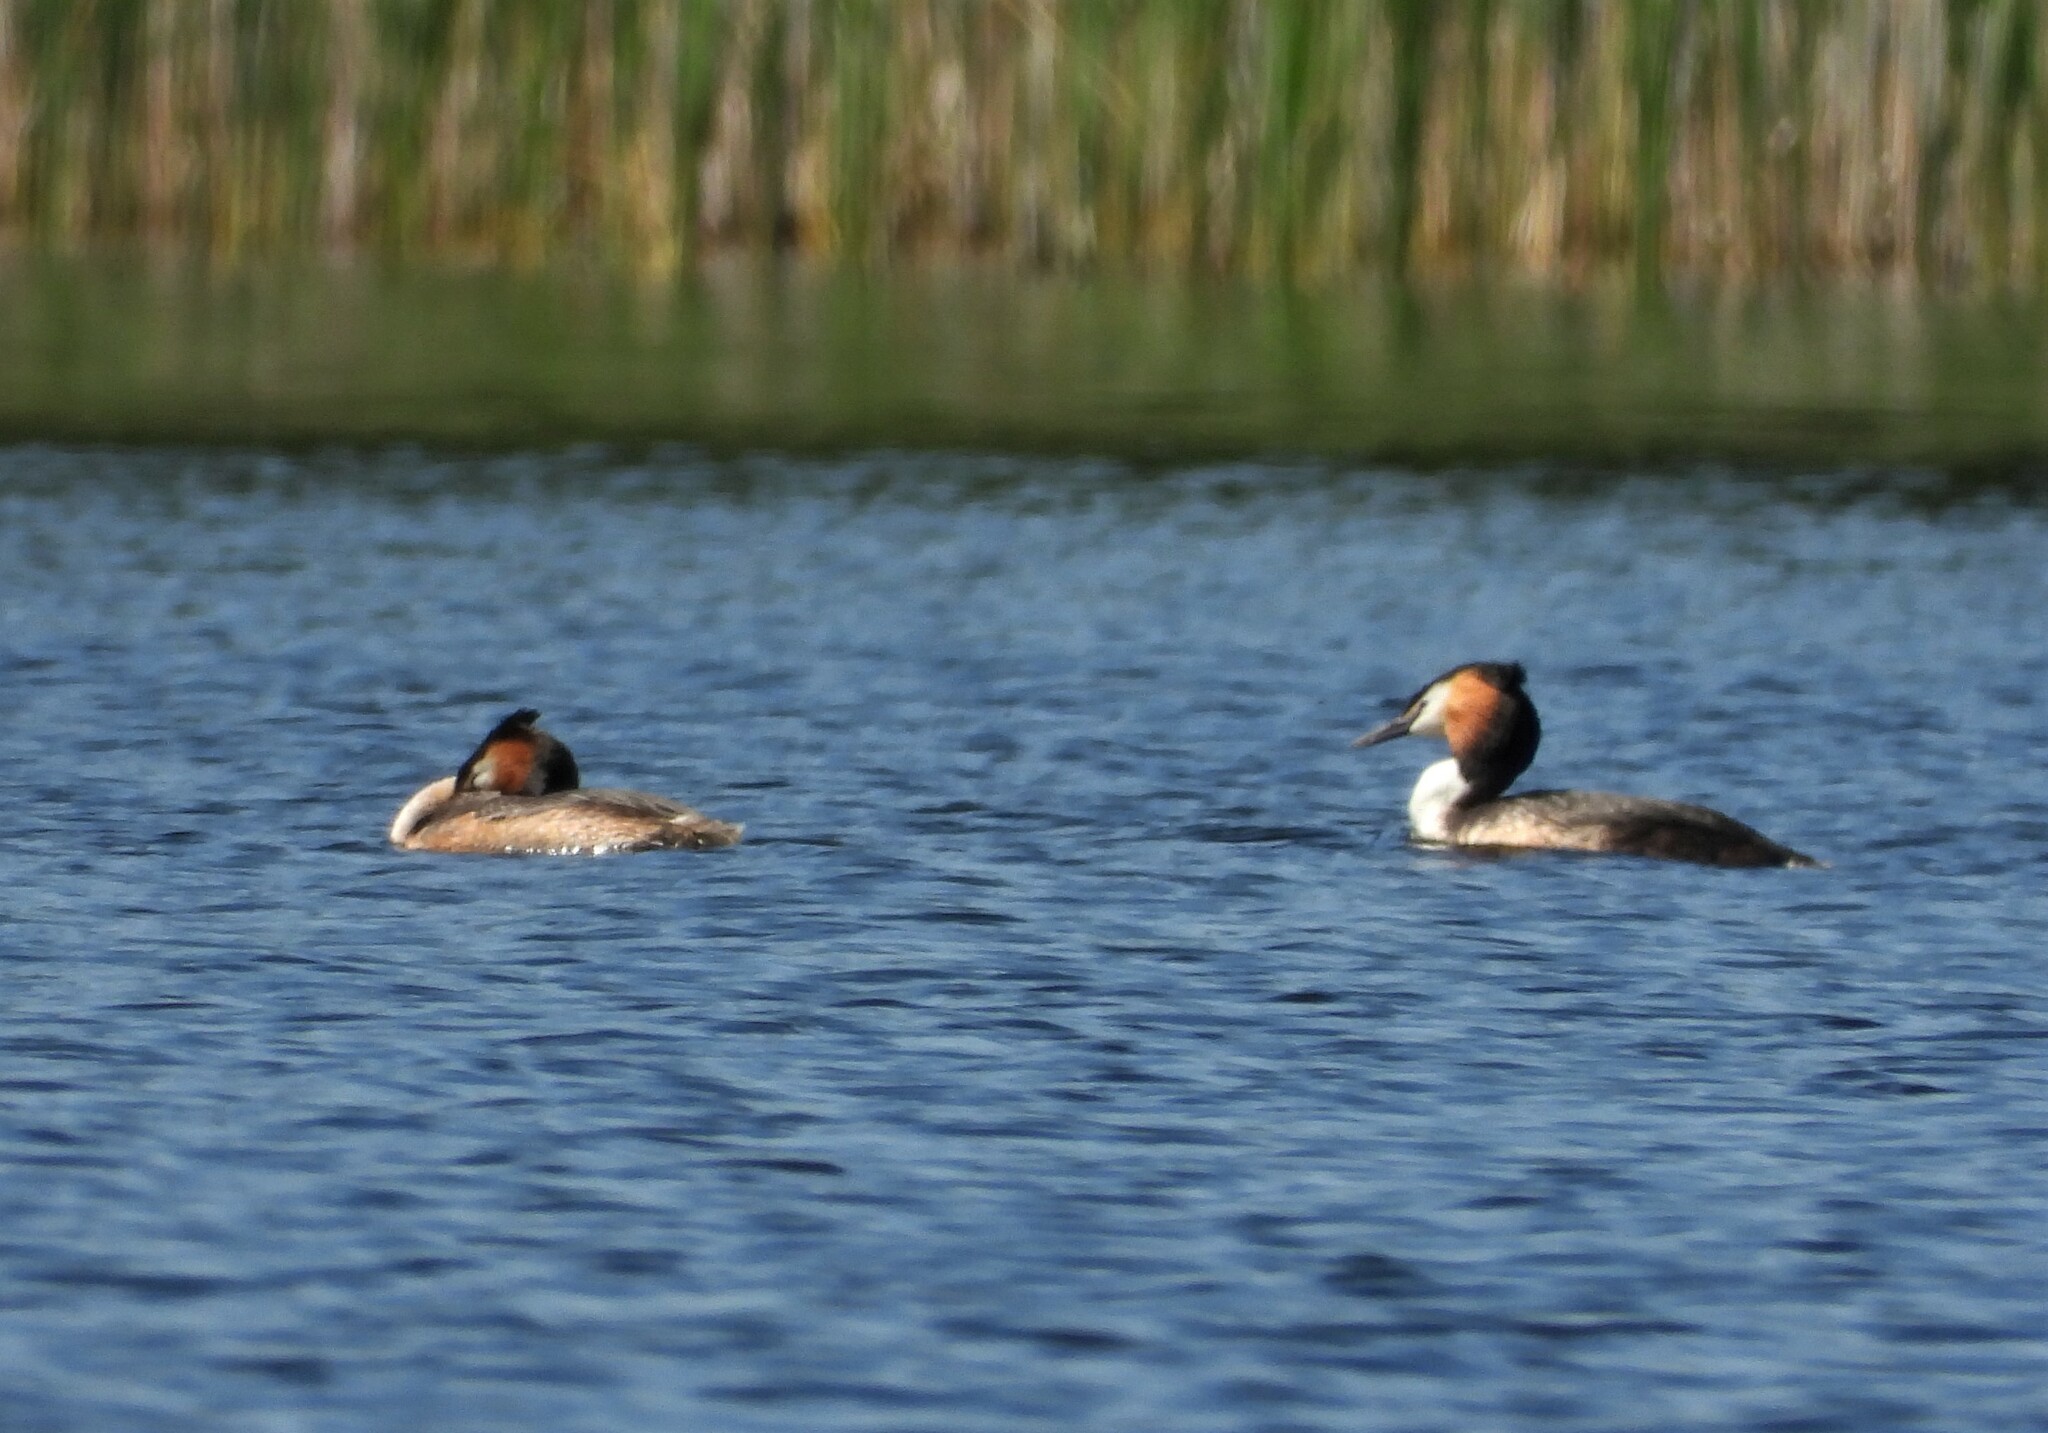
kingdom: Animalia
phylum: Chordata
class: Aves
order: Podicipediformes
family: Podicipedidae
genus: Podiceps
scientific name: Podiceps cristatus
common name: Great crested grebe
